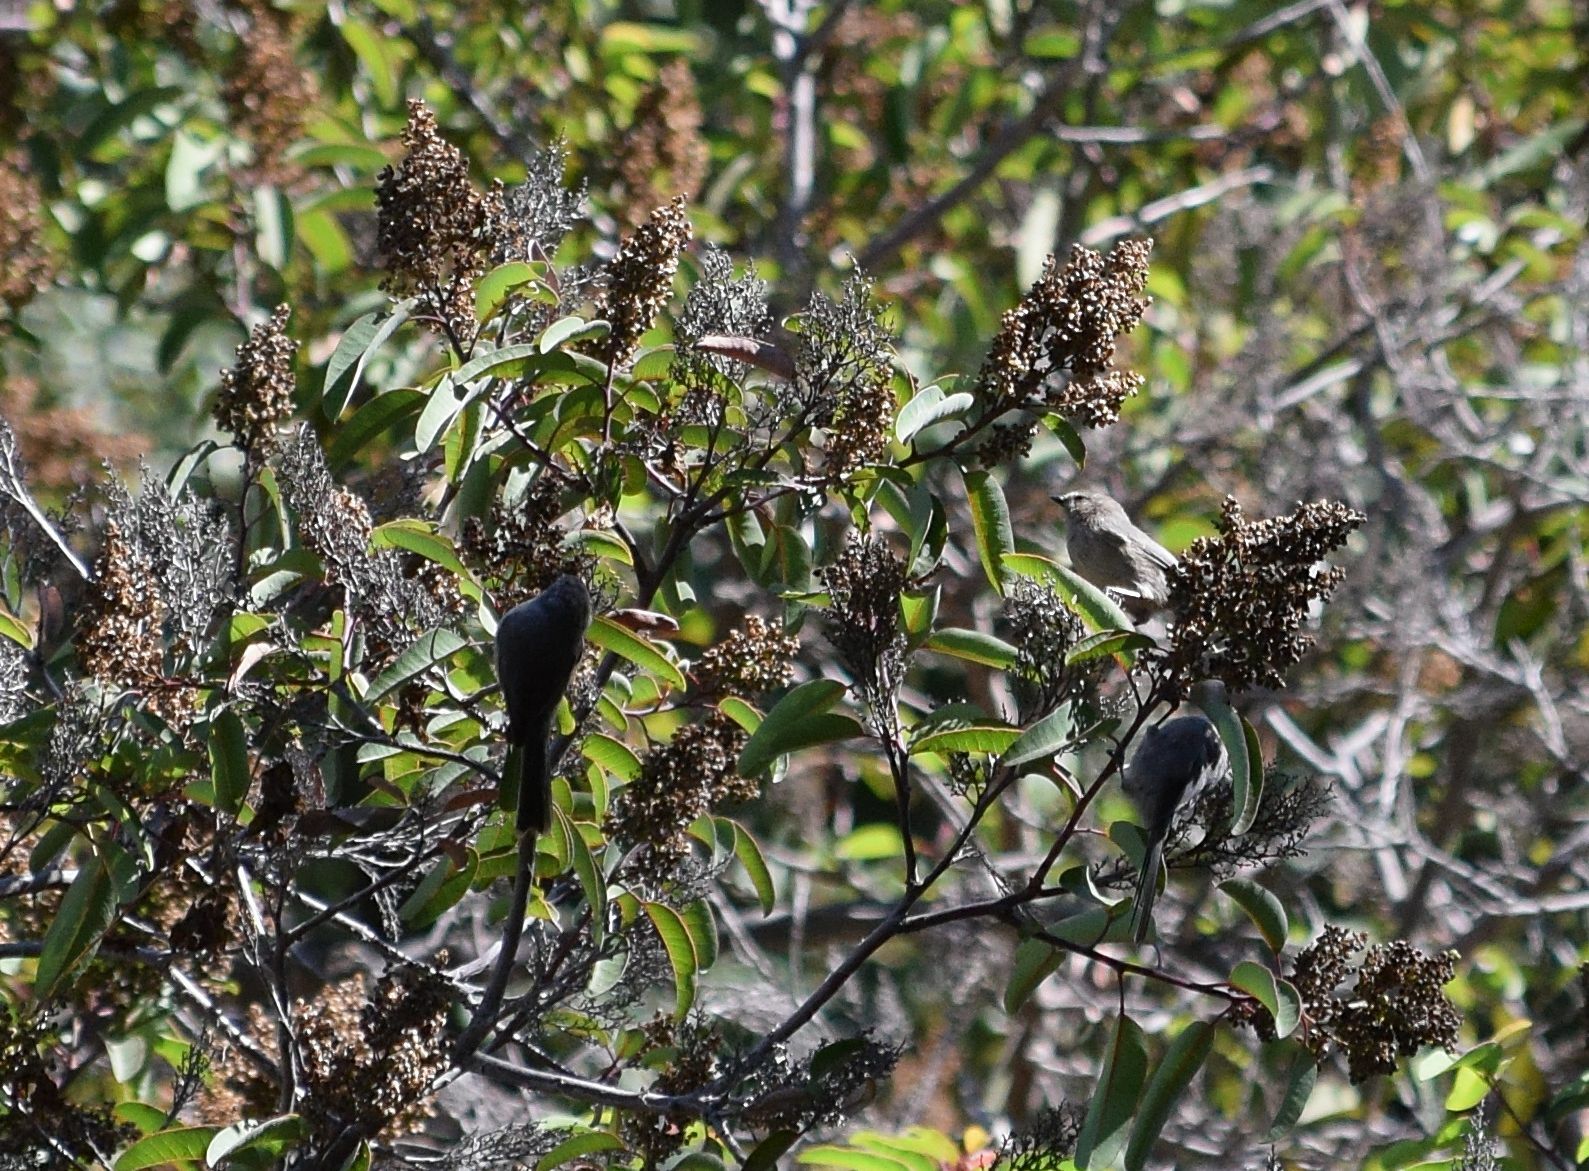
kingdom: Animalia
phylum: Chordata
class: Aves
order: Passeriformes
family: Aegithalidae
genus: Psaltriparus
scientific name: Psaltriparus minimus
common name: American bushtit
